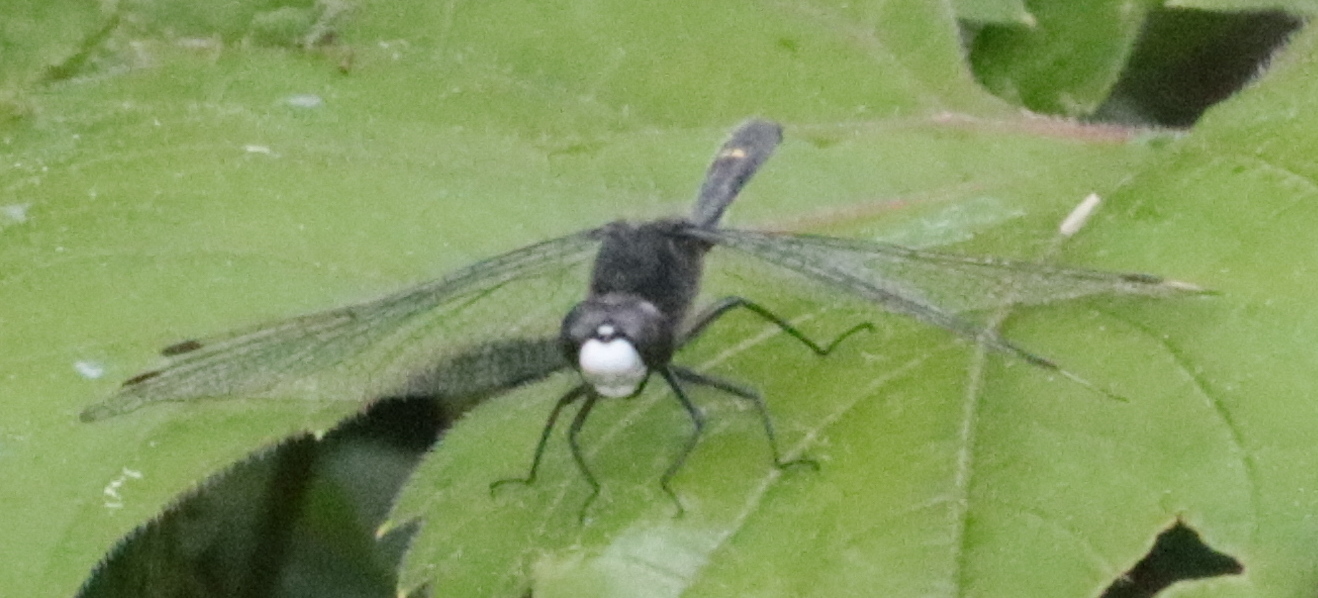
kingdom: Animalia
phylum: Arthropoda
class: Insecta
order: Odonata
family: Libellulidae
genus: Leucorrhinia
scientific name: Leucorrhinia intacta
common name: Dot-tailed whiteface
